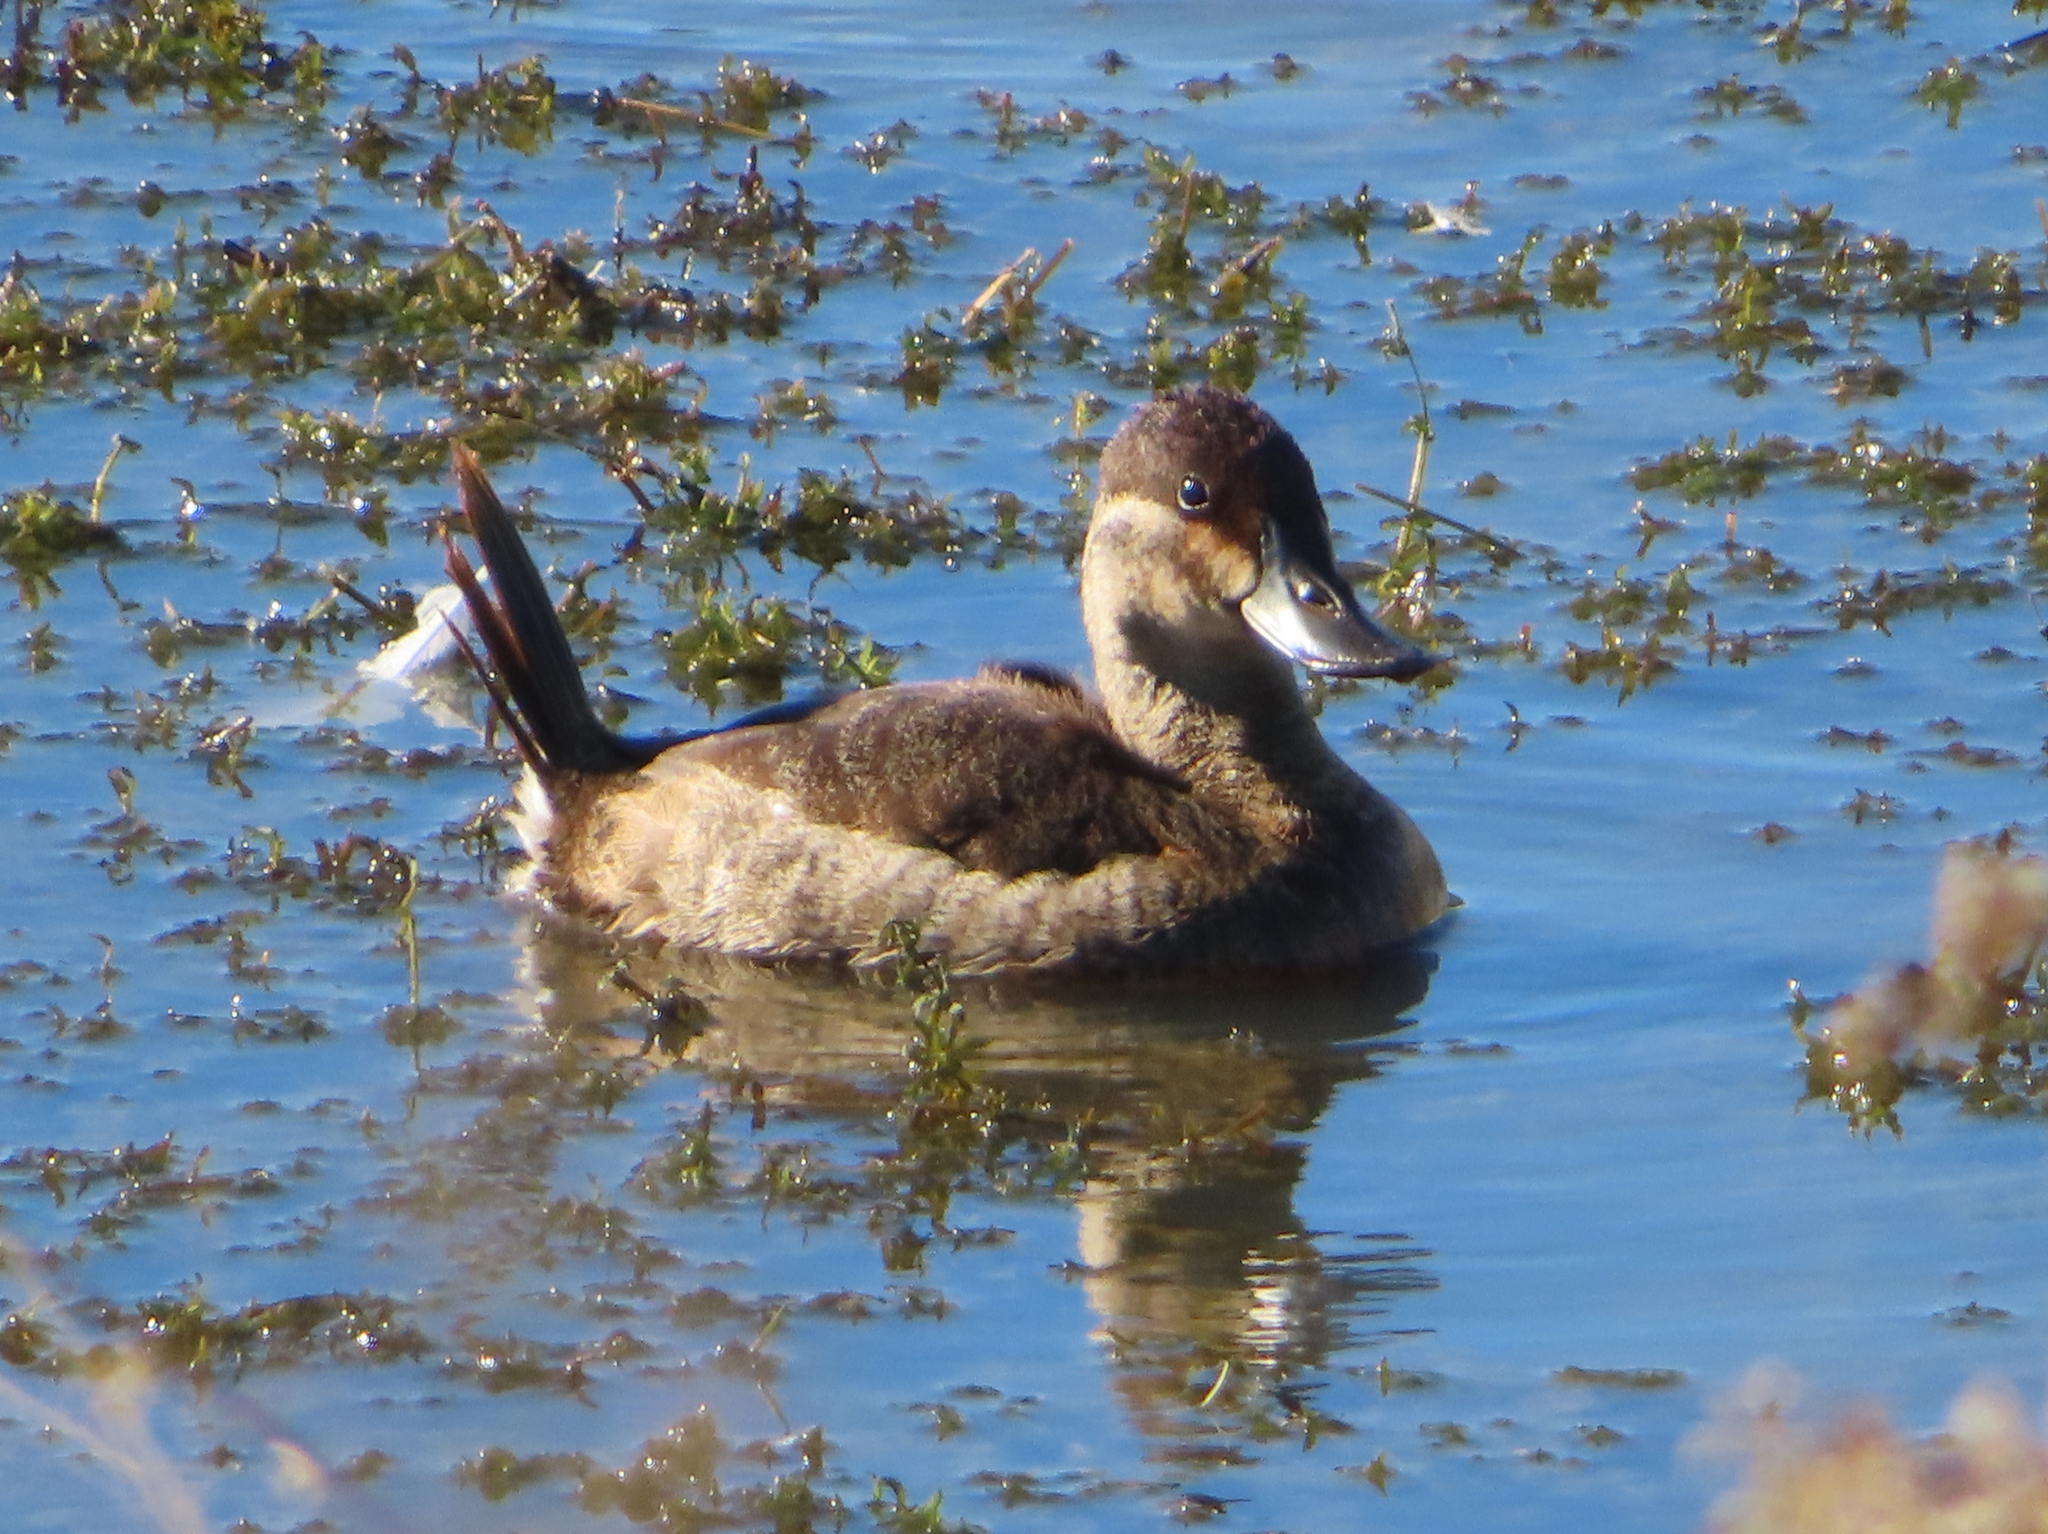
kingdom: Animalia
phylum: Chordata
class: Aves
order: Anseriformes
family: Anatidae
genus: Oxyura
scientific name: Oxyura jamaicensis
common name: Ruddy duck
